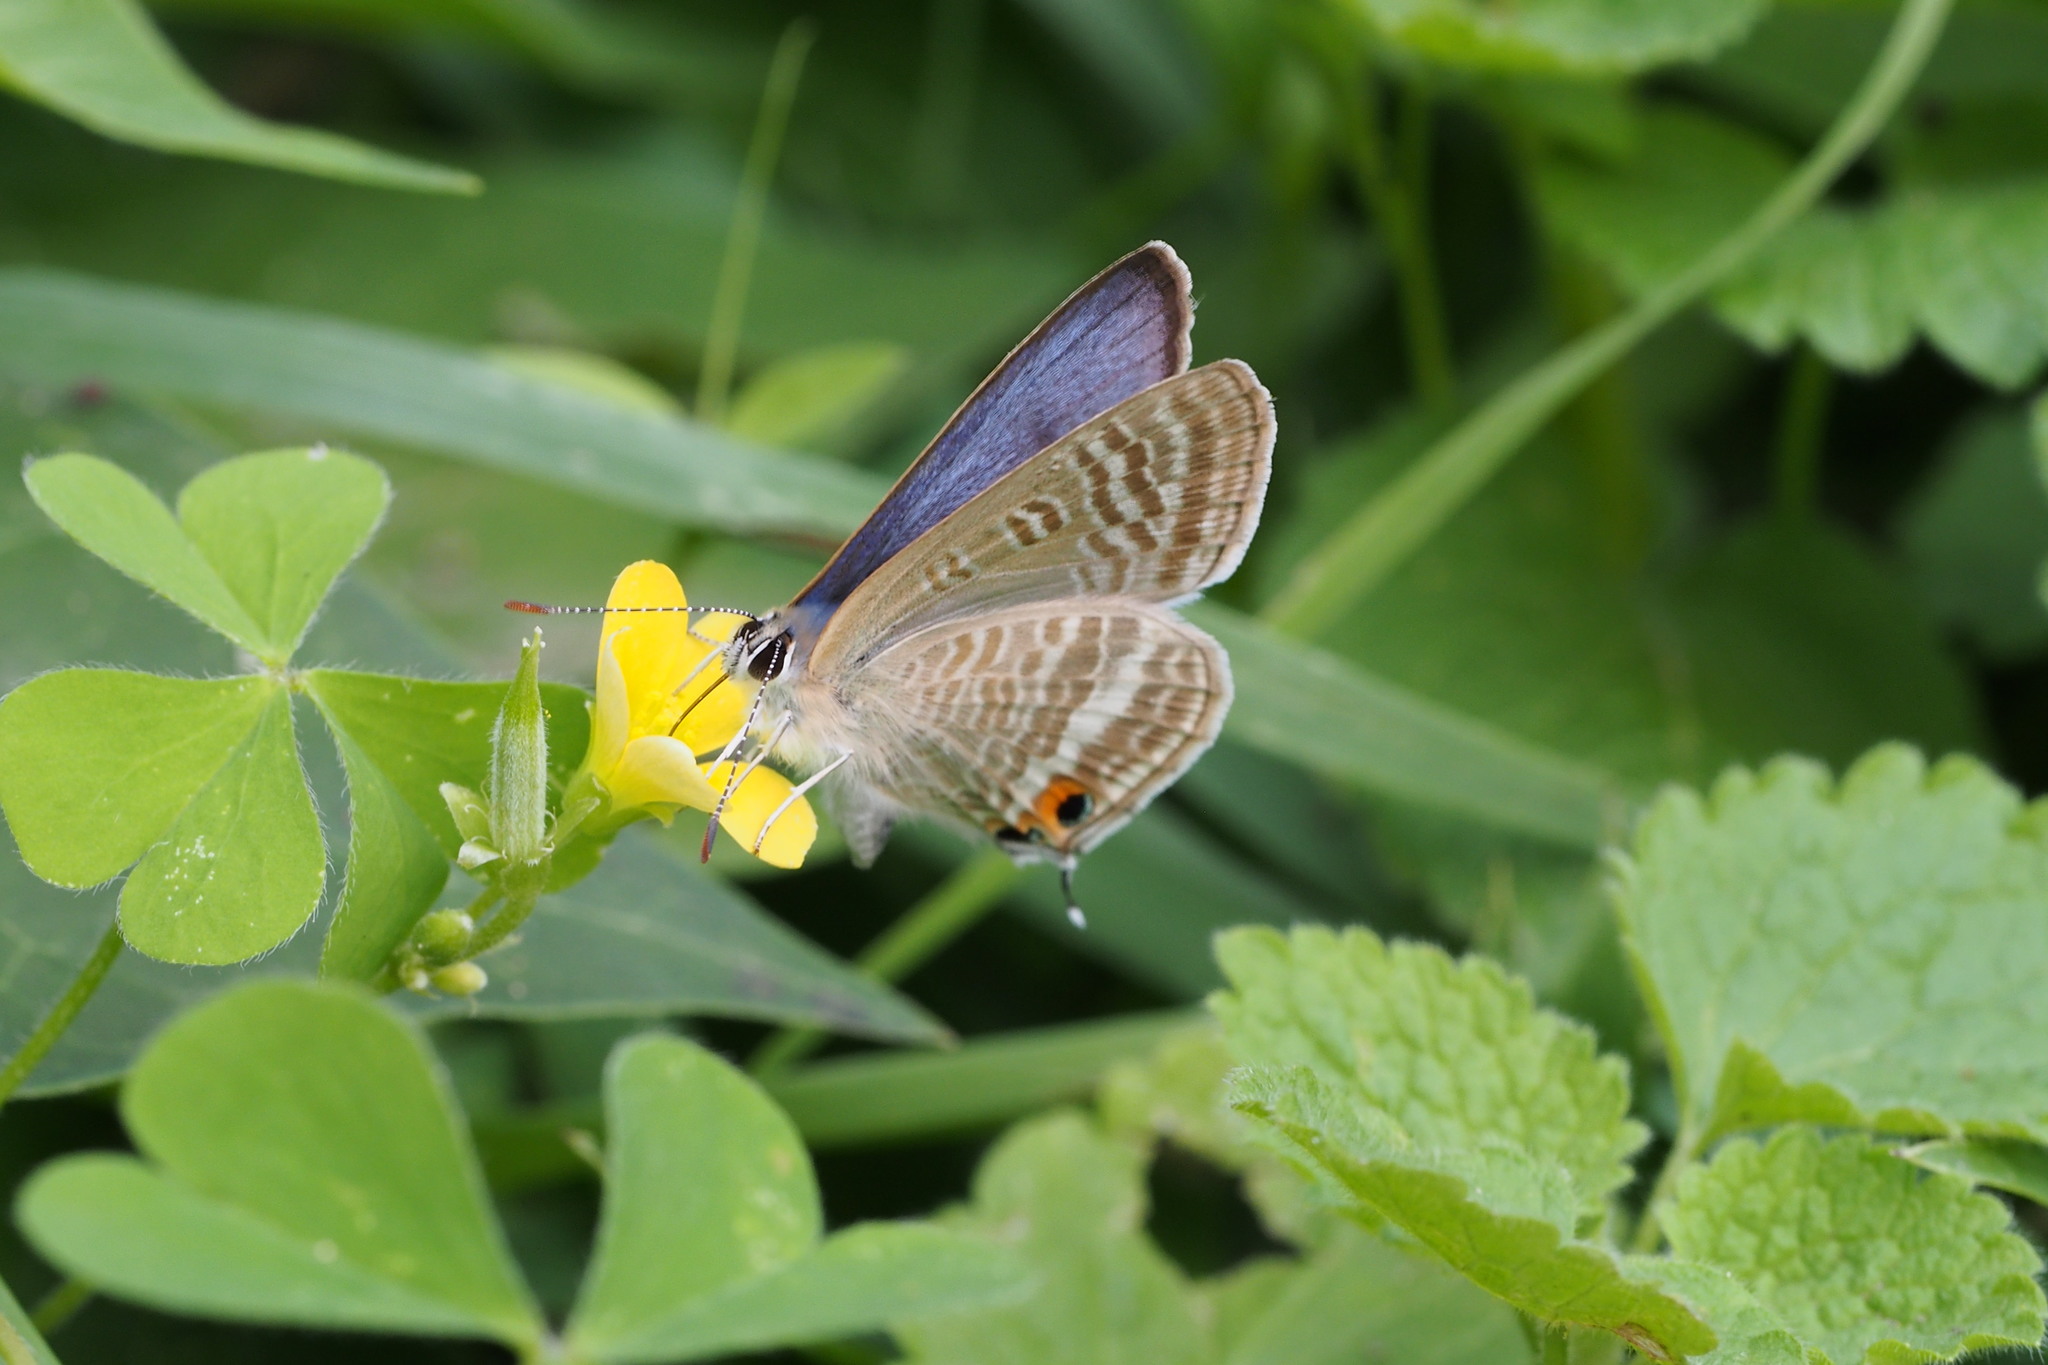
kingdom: Animalia
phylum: Arthropoda
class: Insecta
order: Lepidoptera
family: Lycaenidae
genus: Lampides
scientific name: Lampides boeticus
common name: Long-tailed blue
